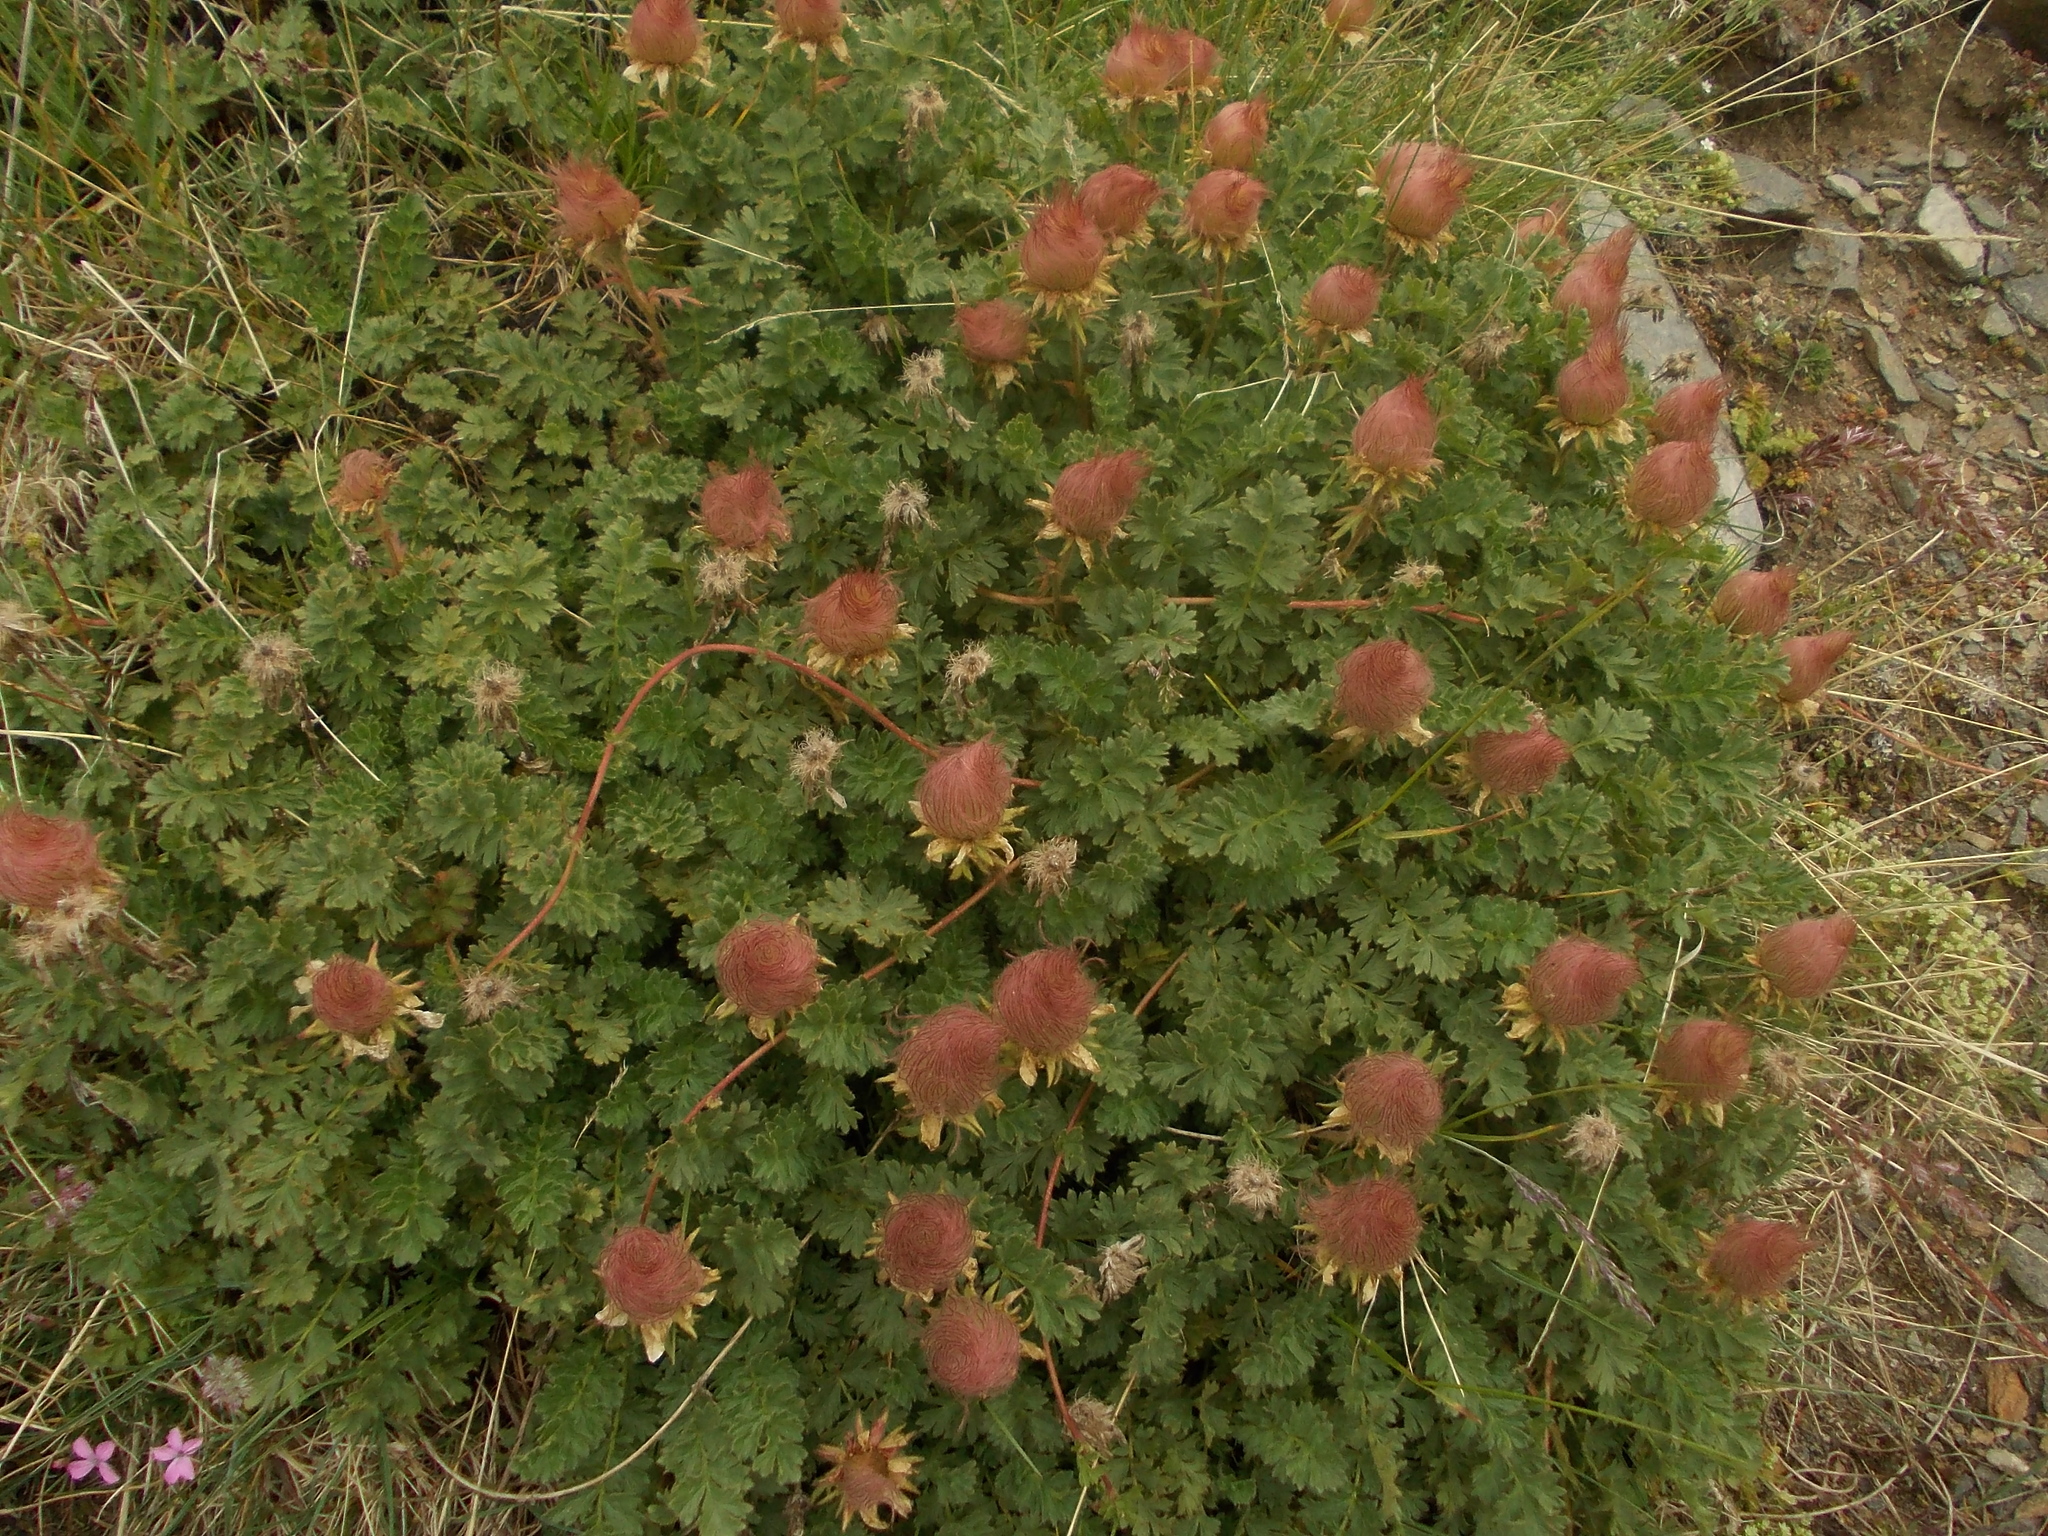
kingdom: Plantae
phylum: Tracheophyta
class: Magnoliopsida
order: Rosales
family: Rosaceae
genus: Geum
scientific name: Geum reptans
